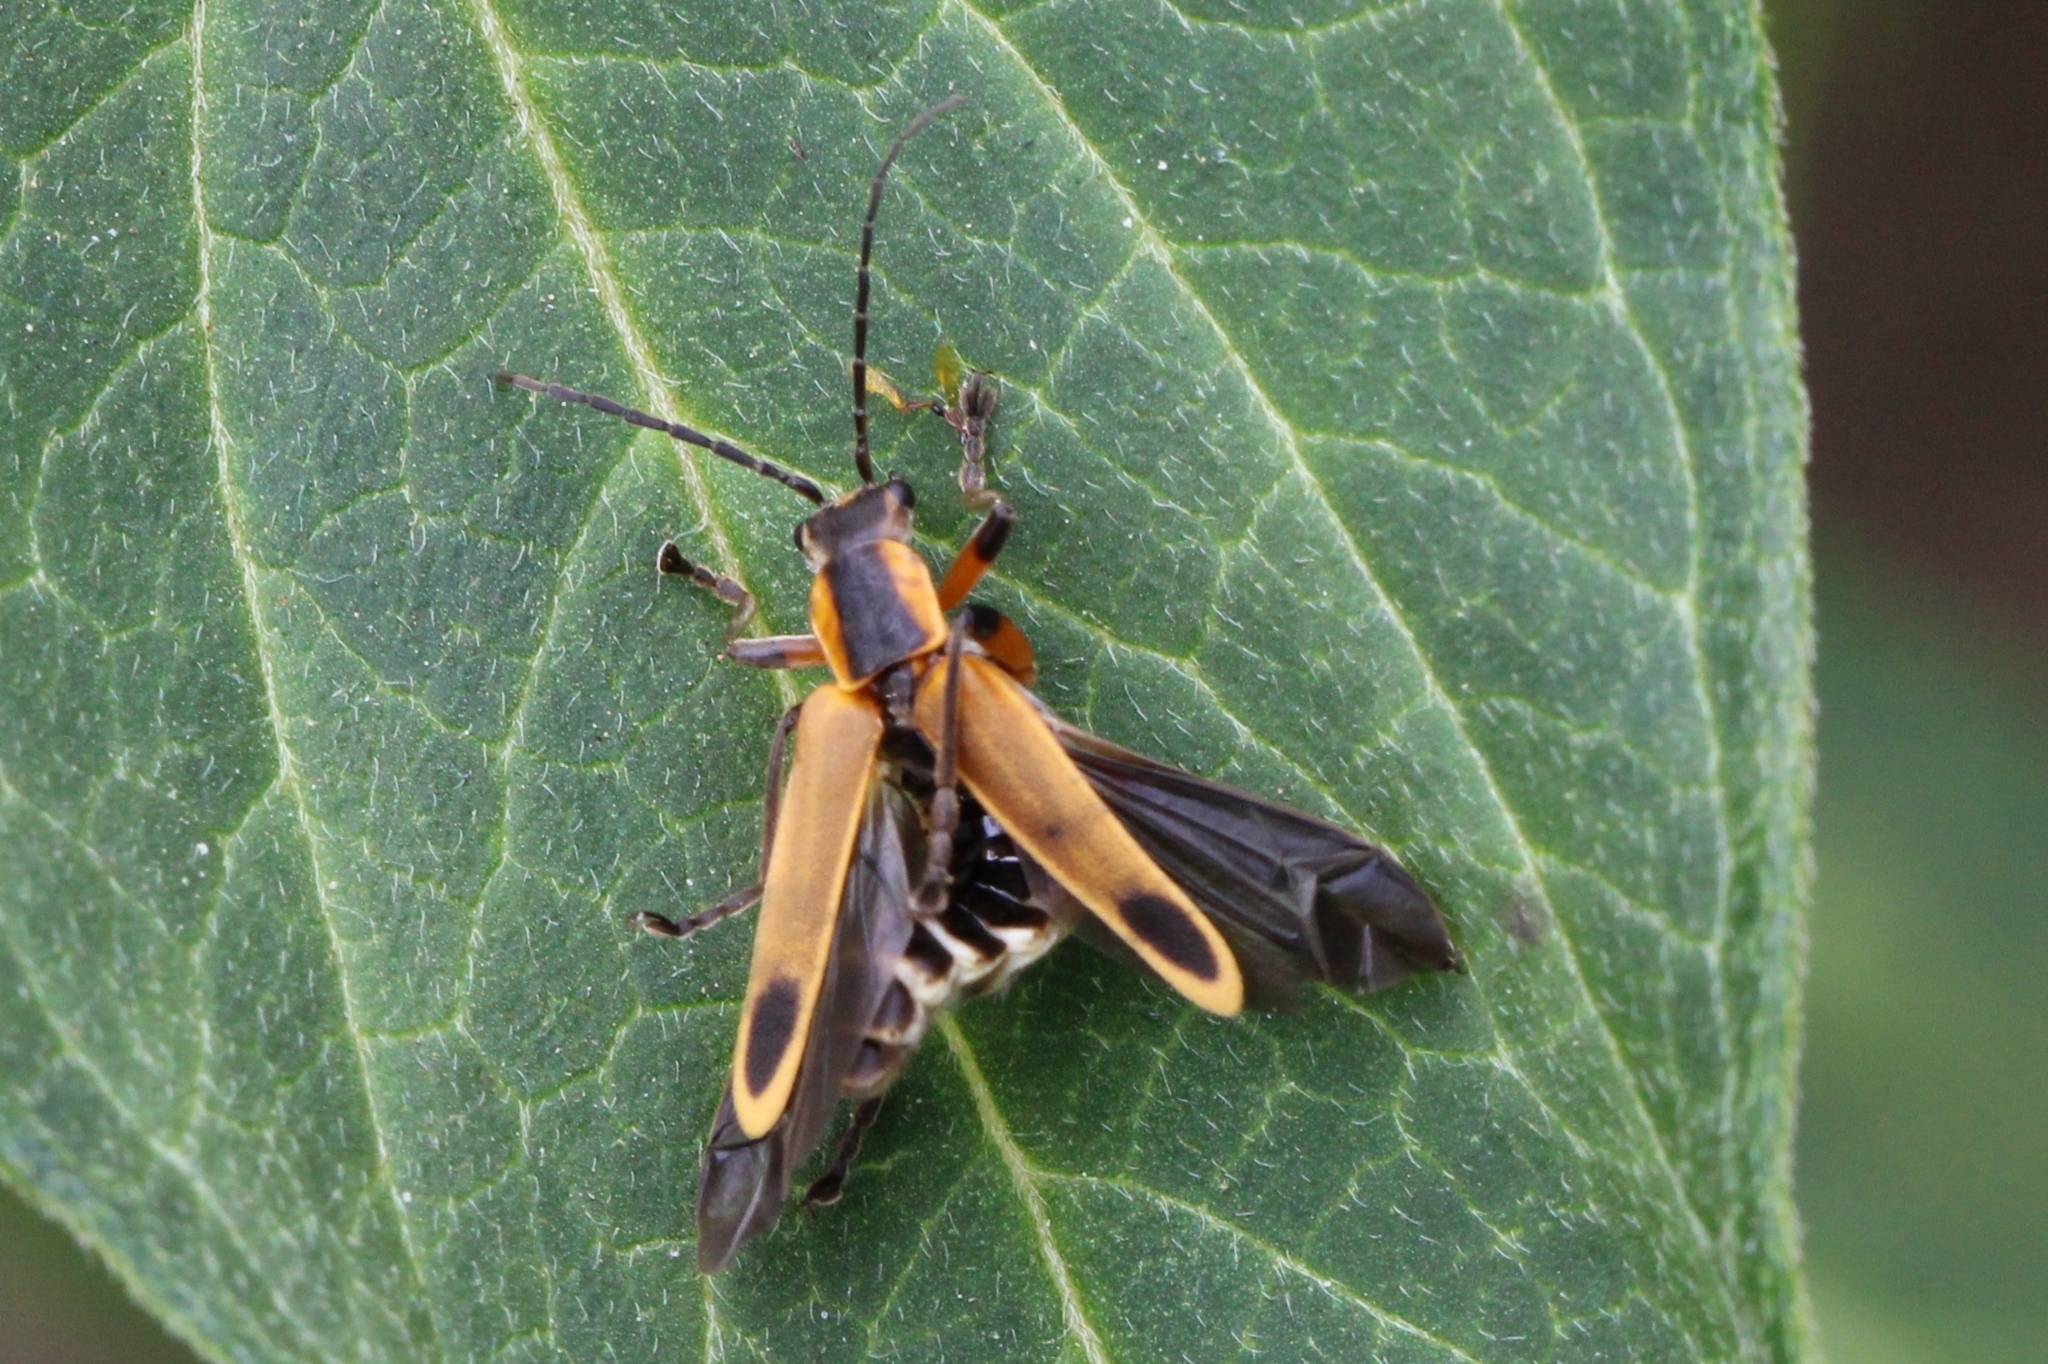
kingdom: Animalia
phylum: Arthropoda
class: Insecta
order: Coleoptera
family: Cantharidae
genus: Chauliognathus
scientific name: Chauliognathus marginatus
